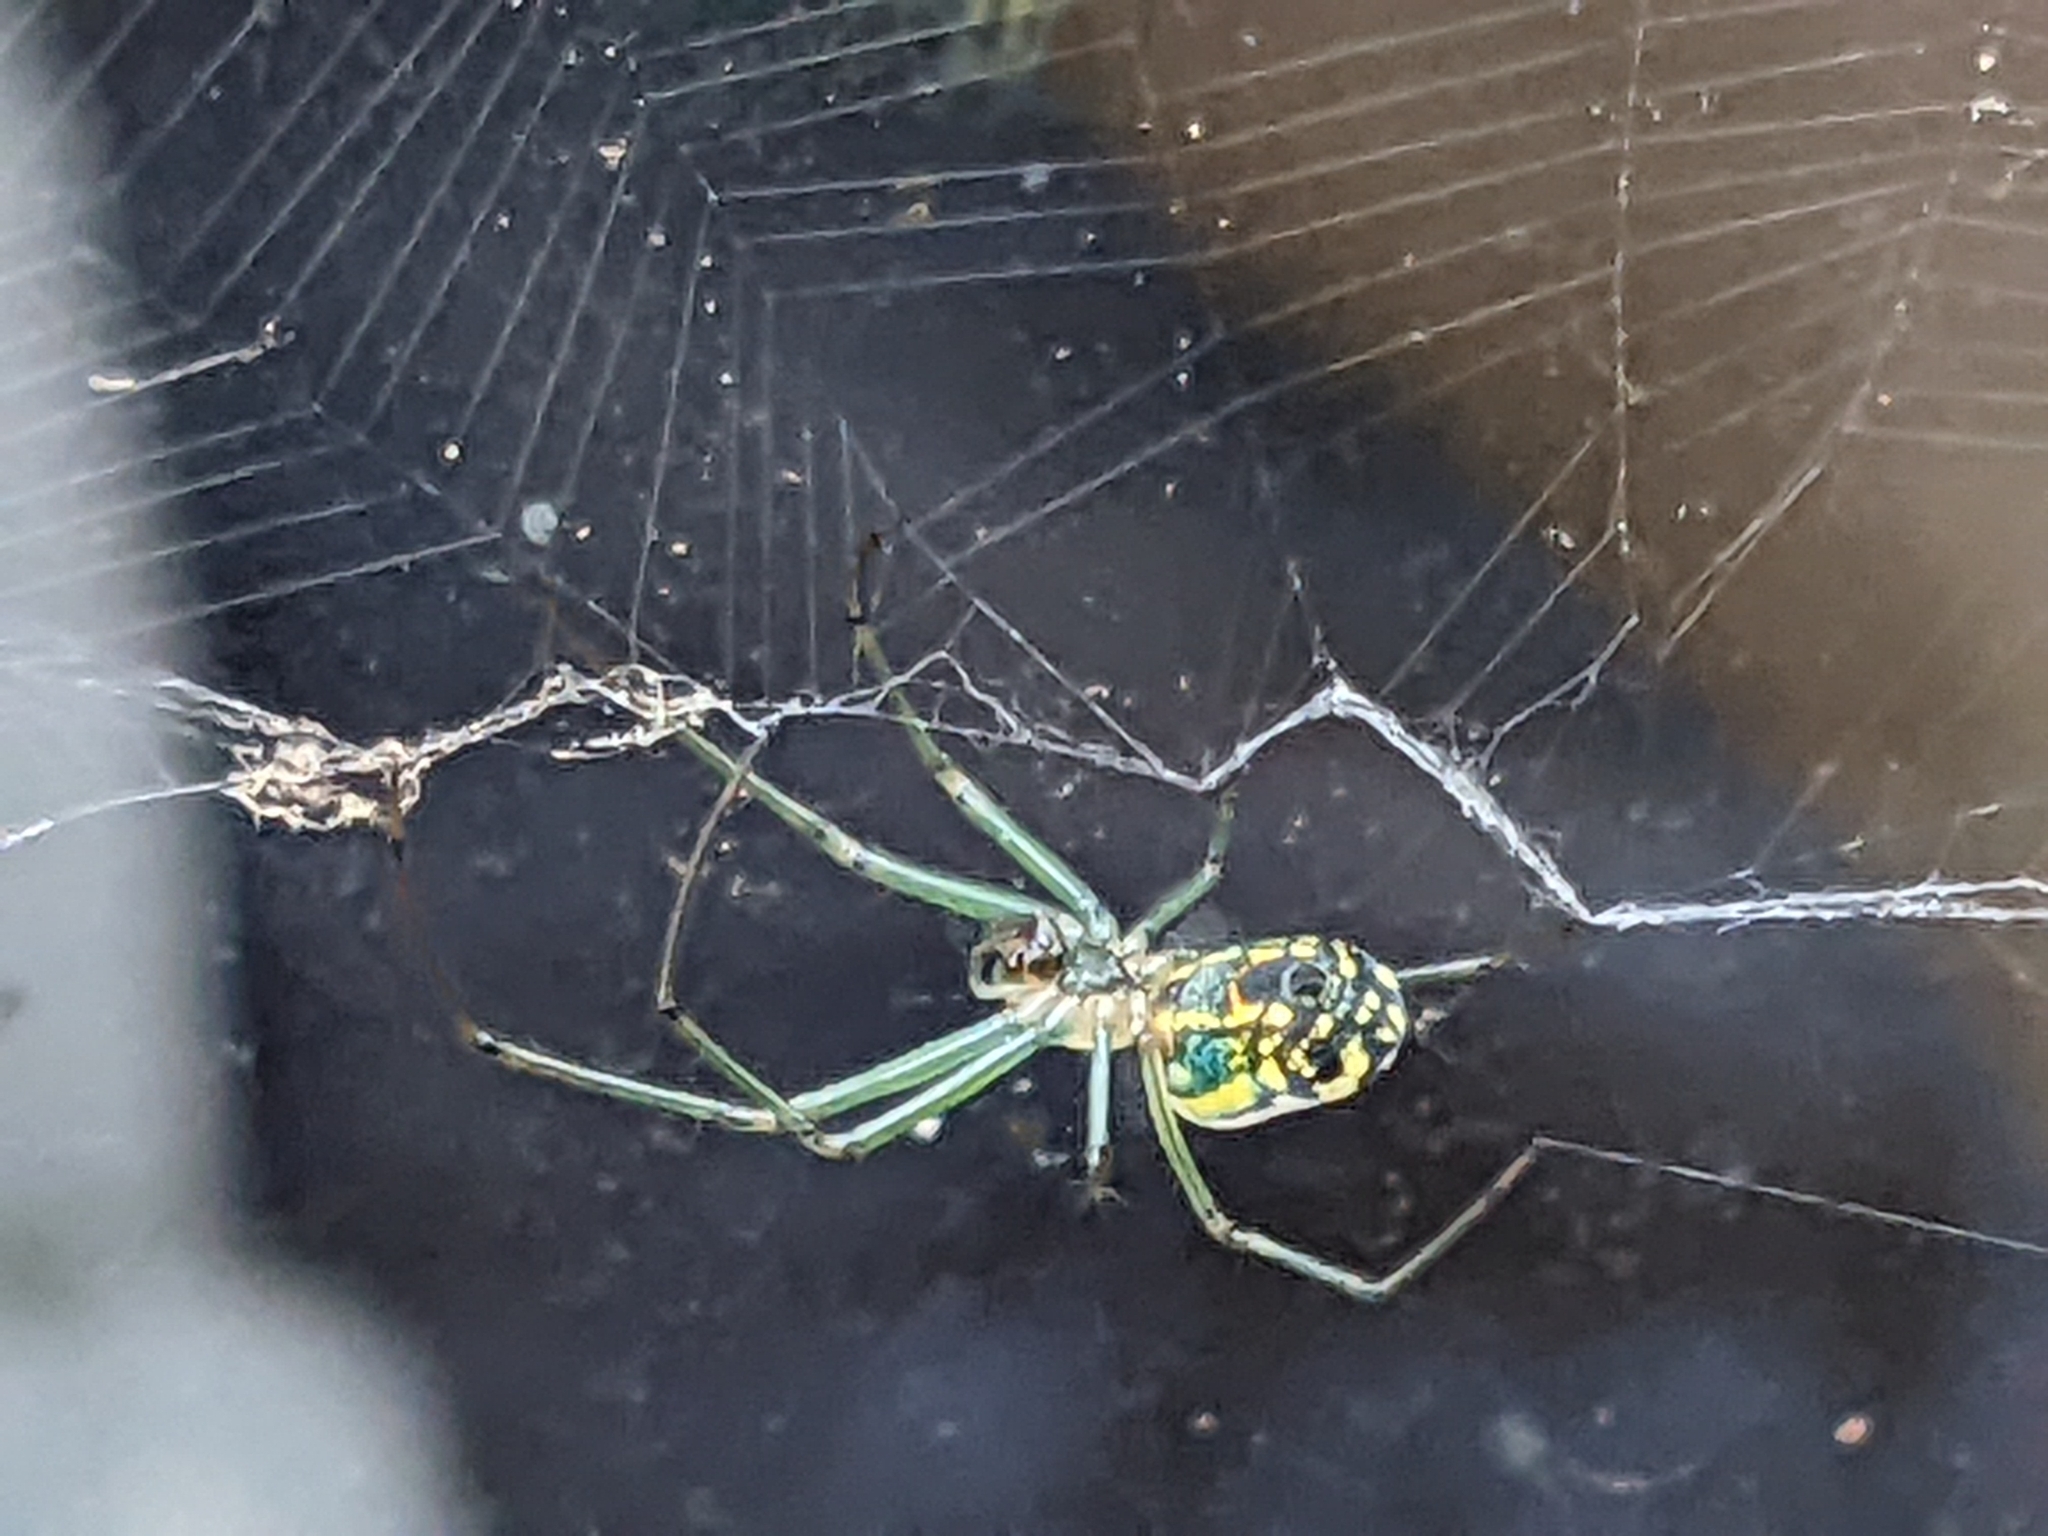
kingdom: Animalia
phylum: Arthropoda
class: Arachnida
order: Araneae
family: Tetragnathidae
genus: Leucauge
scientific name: Leucauge venusta
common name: Longjawed orb weavers
